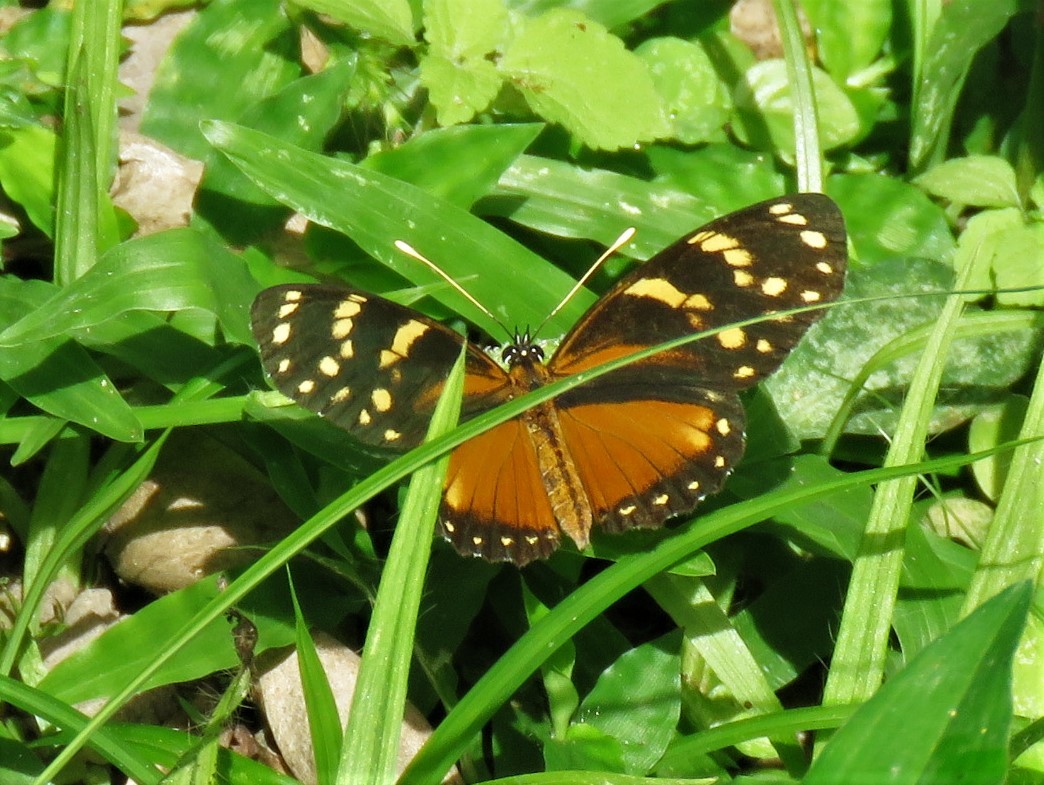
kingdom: Animalia
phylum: Arthropoda
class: Insecta
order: Lepidoptera
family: Nymphalidae
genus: Eresia
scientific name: Eresia ithomioides
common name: Variable crescent
